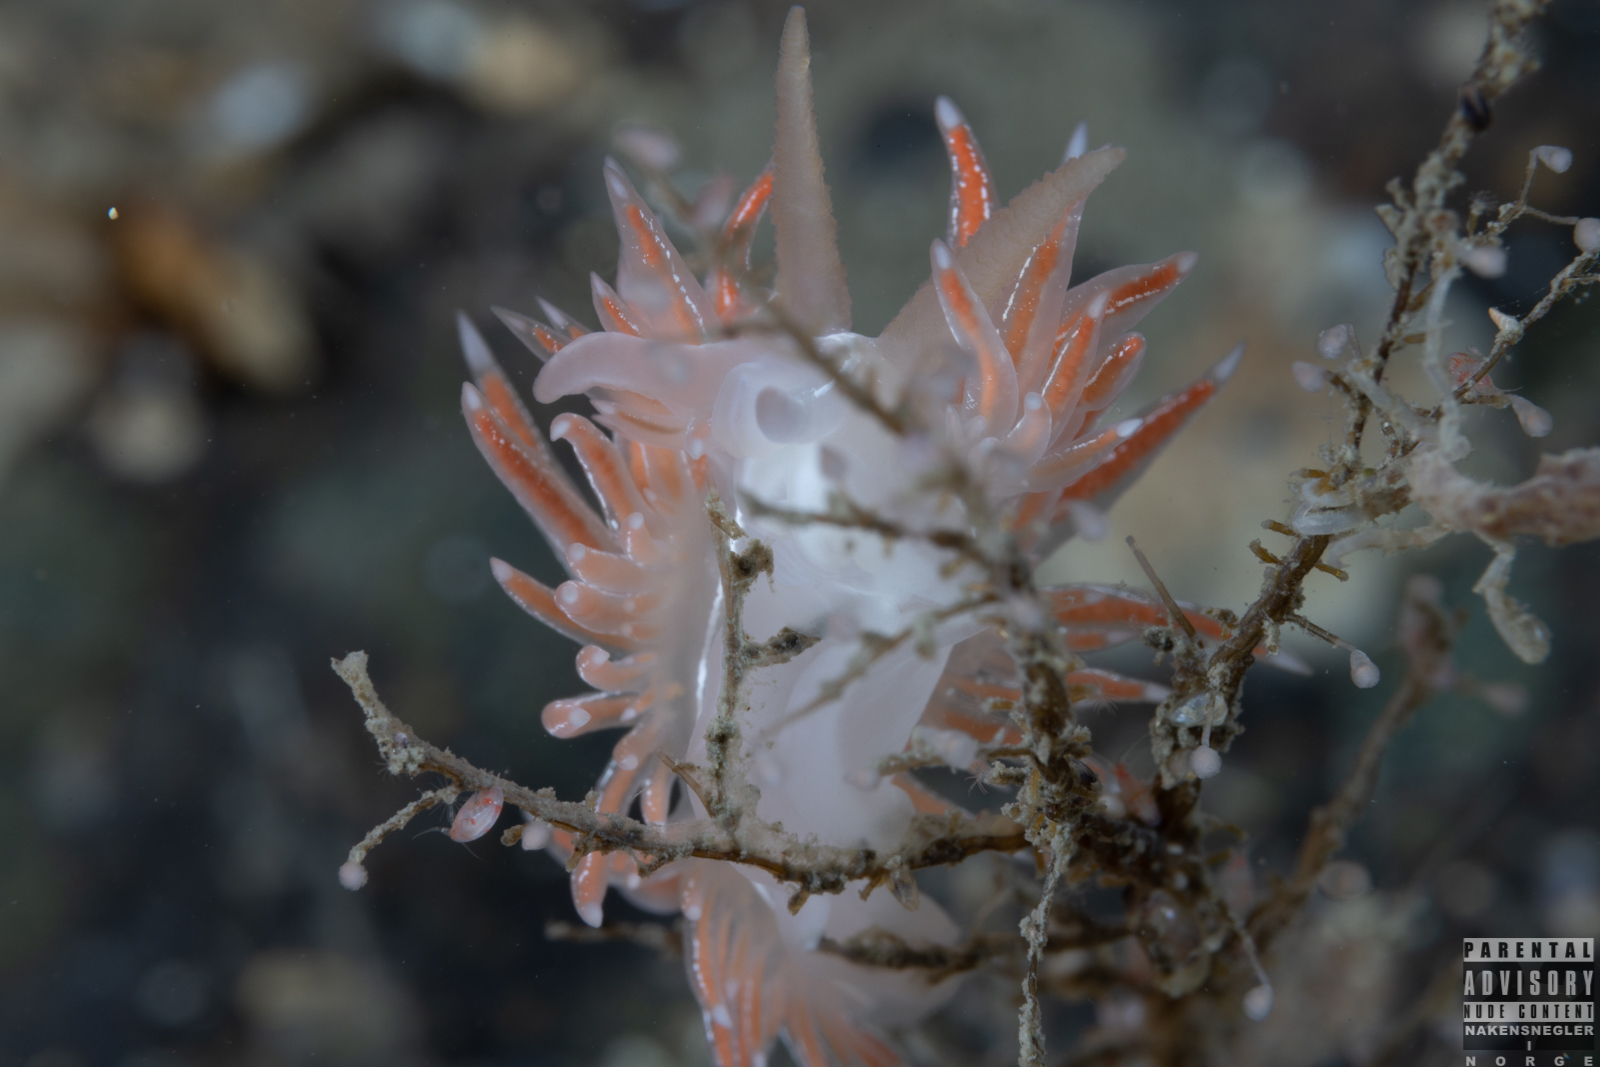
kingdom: Animalia
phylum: Mollusca
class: Gastropoda
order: Nudibranchia
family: Coryphellidae
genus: Coryphella
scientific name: Coryphella chriskaugei
